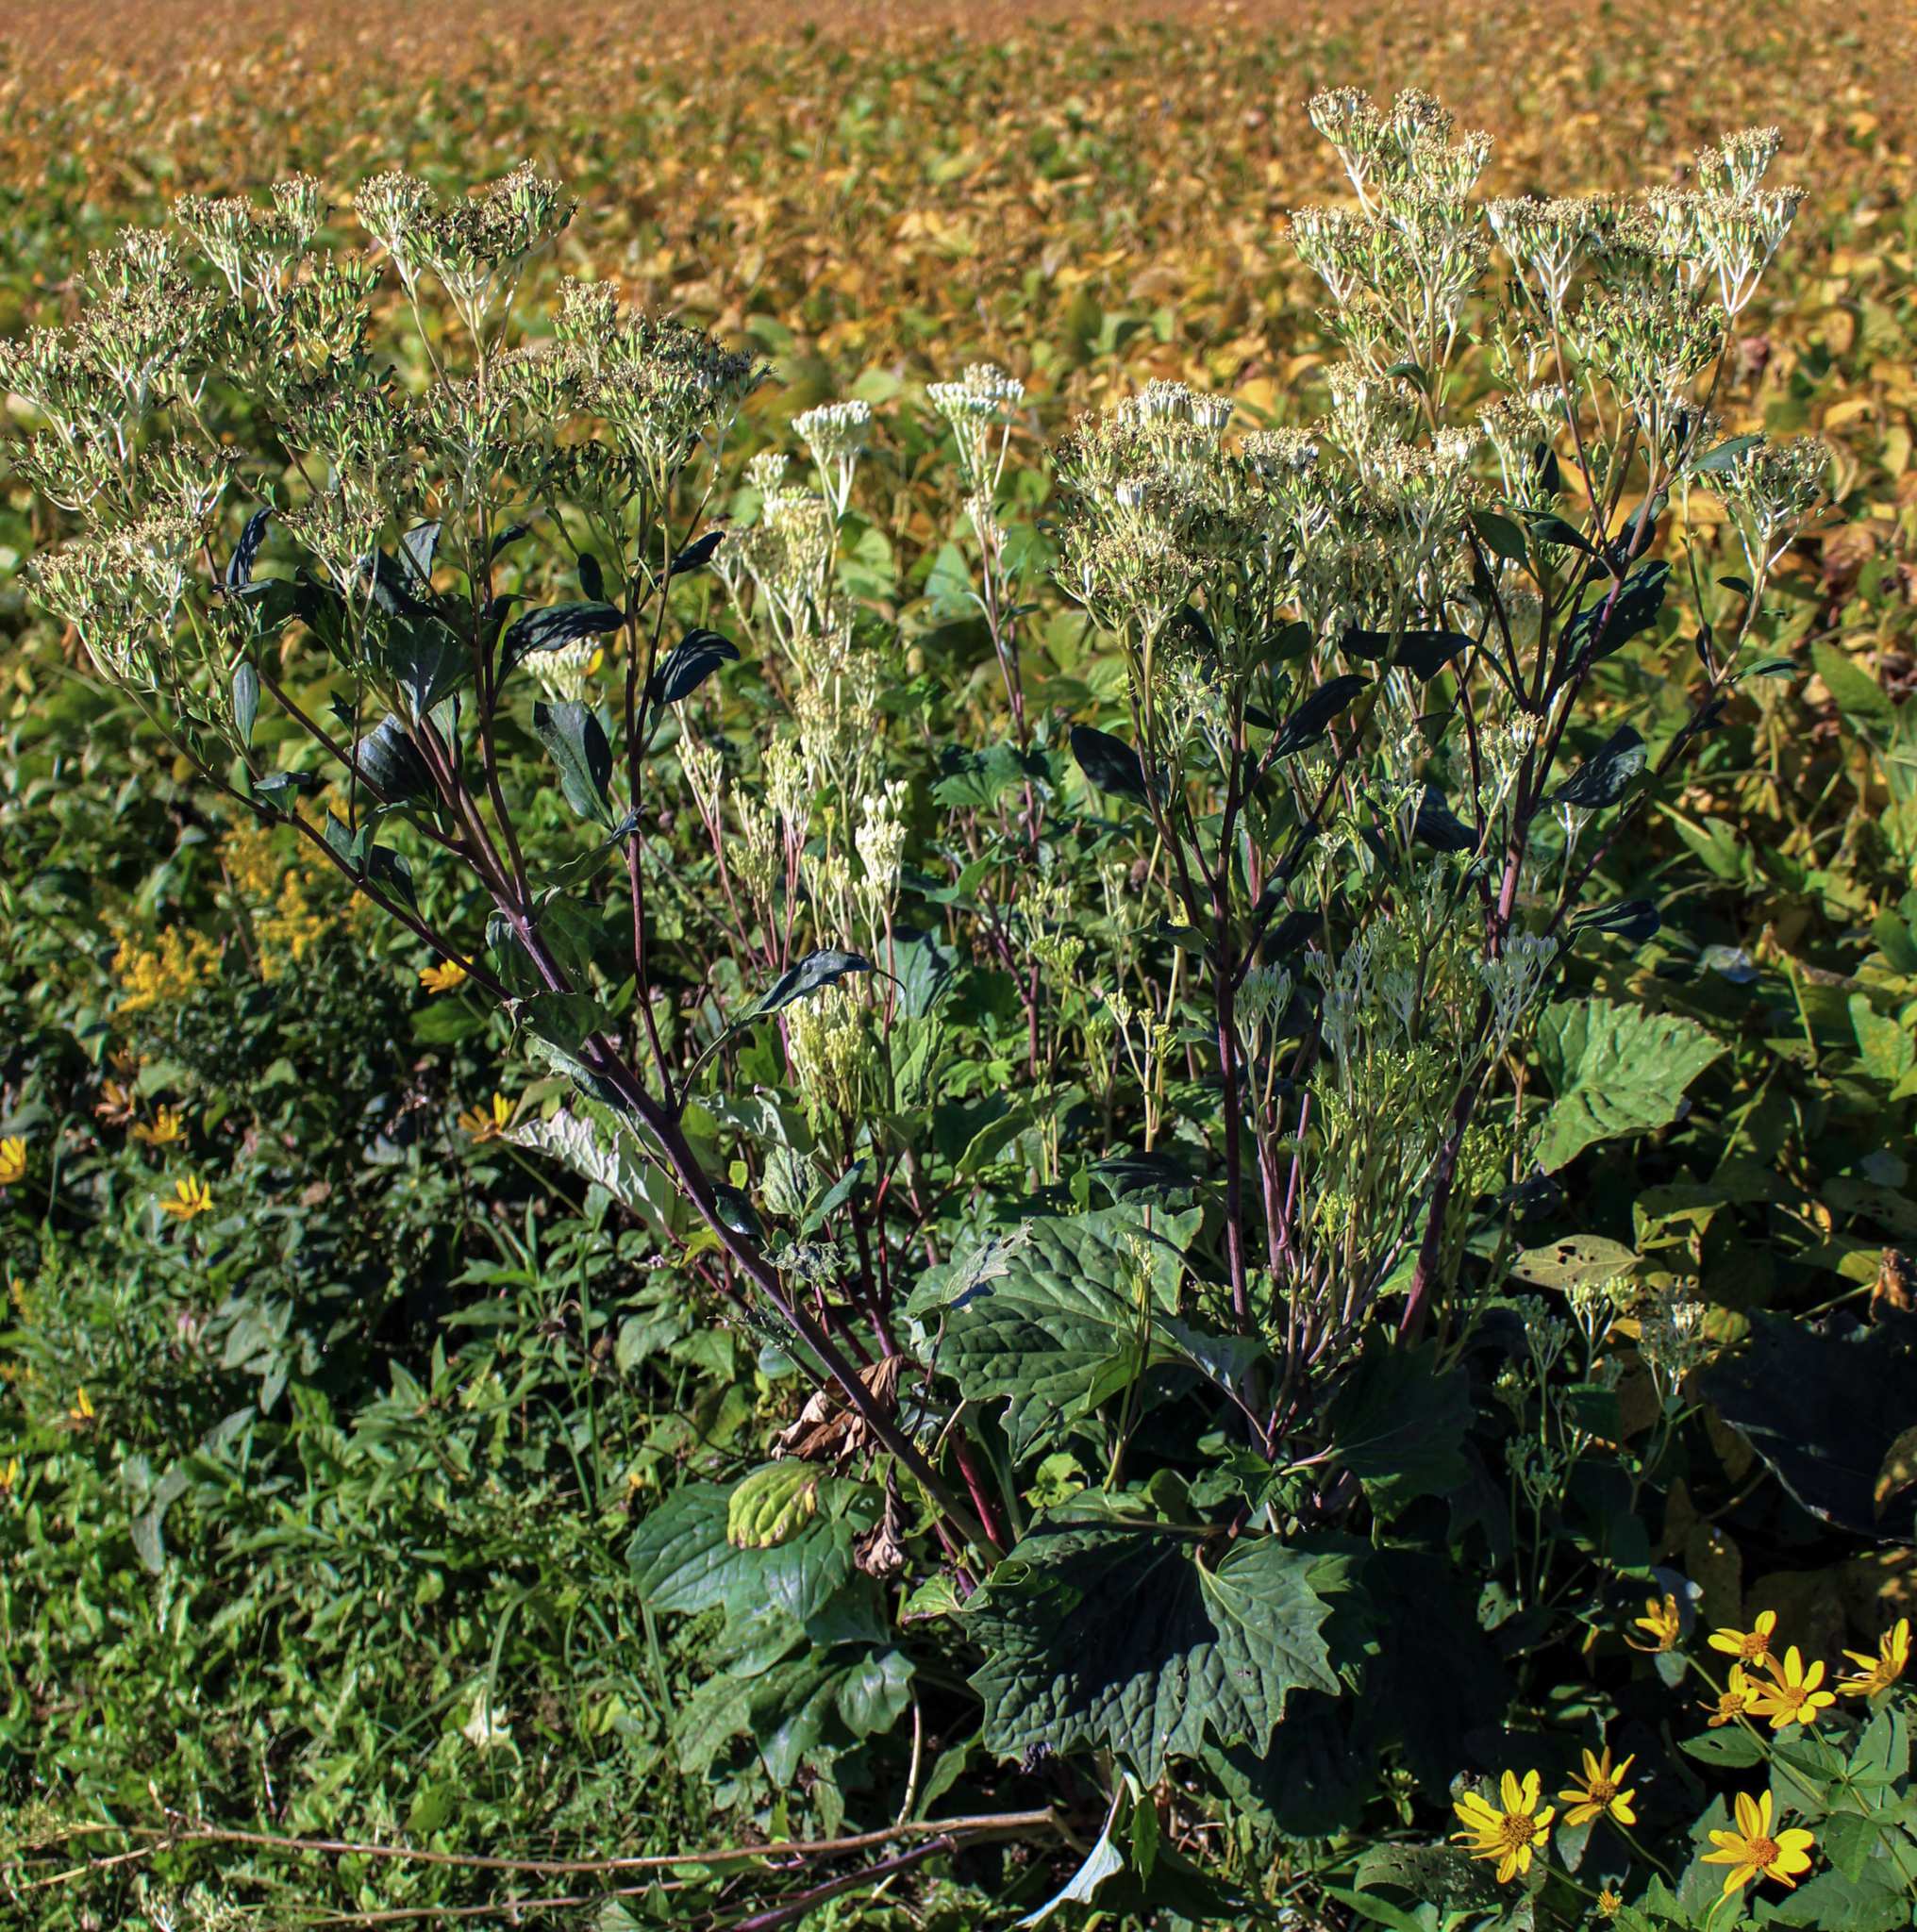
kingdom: Plantae
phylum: Tracheophyta
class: Magnoliopsida
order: Asterales
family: Asteraceae
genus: Arnoglossum
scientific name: Arnoglossum atriplicifolium
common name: Pale indian-plantain
